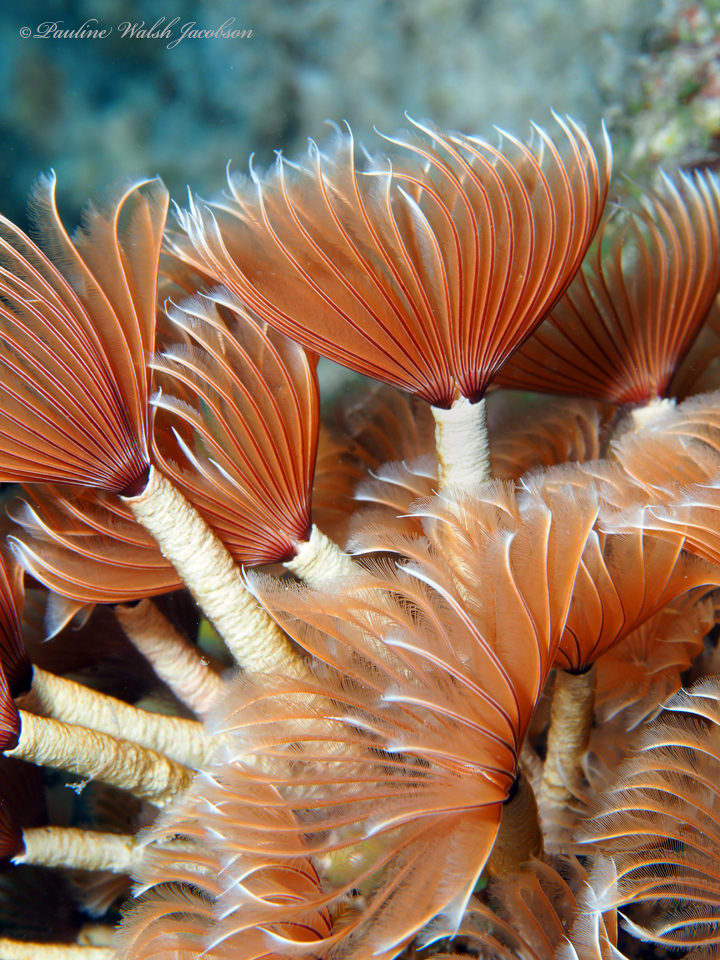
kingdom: Animalia
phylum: Annelida
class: Polychaeta
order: Sabellida
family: Sabellidae
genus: Bispira
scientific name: Bispira brunnea
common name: Social feather duster
